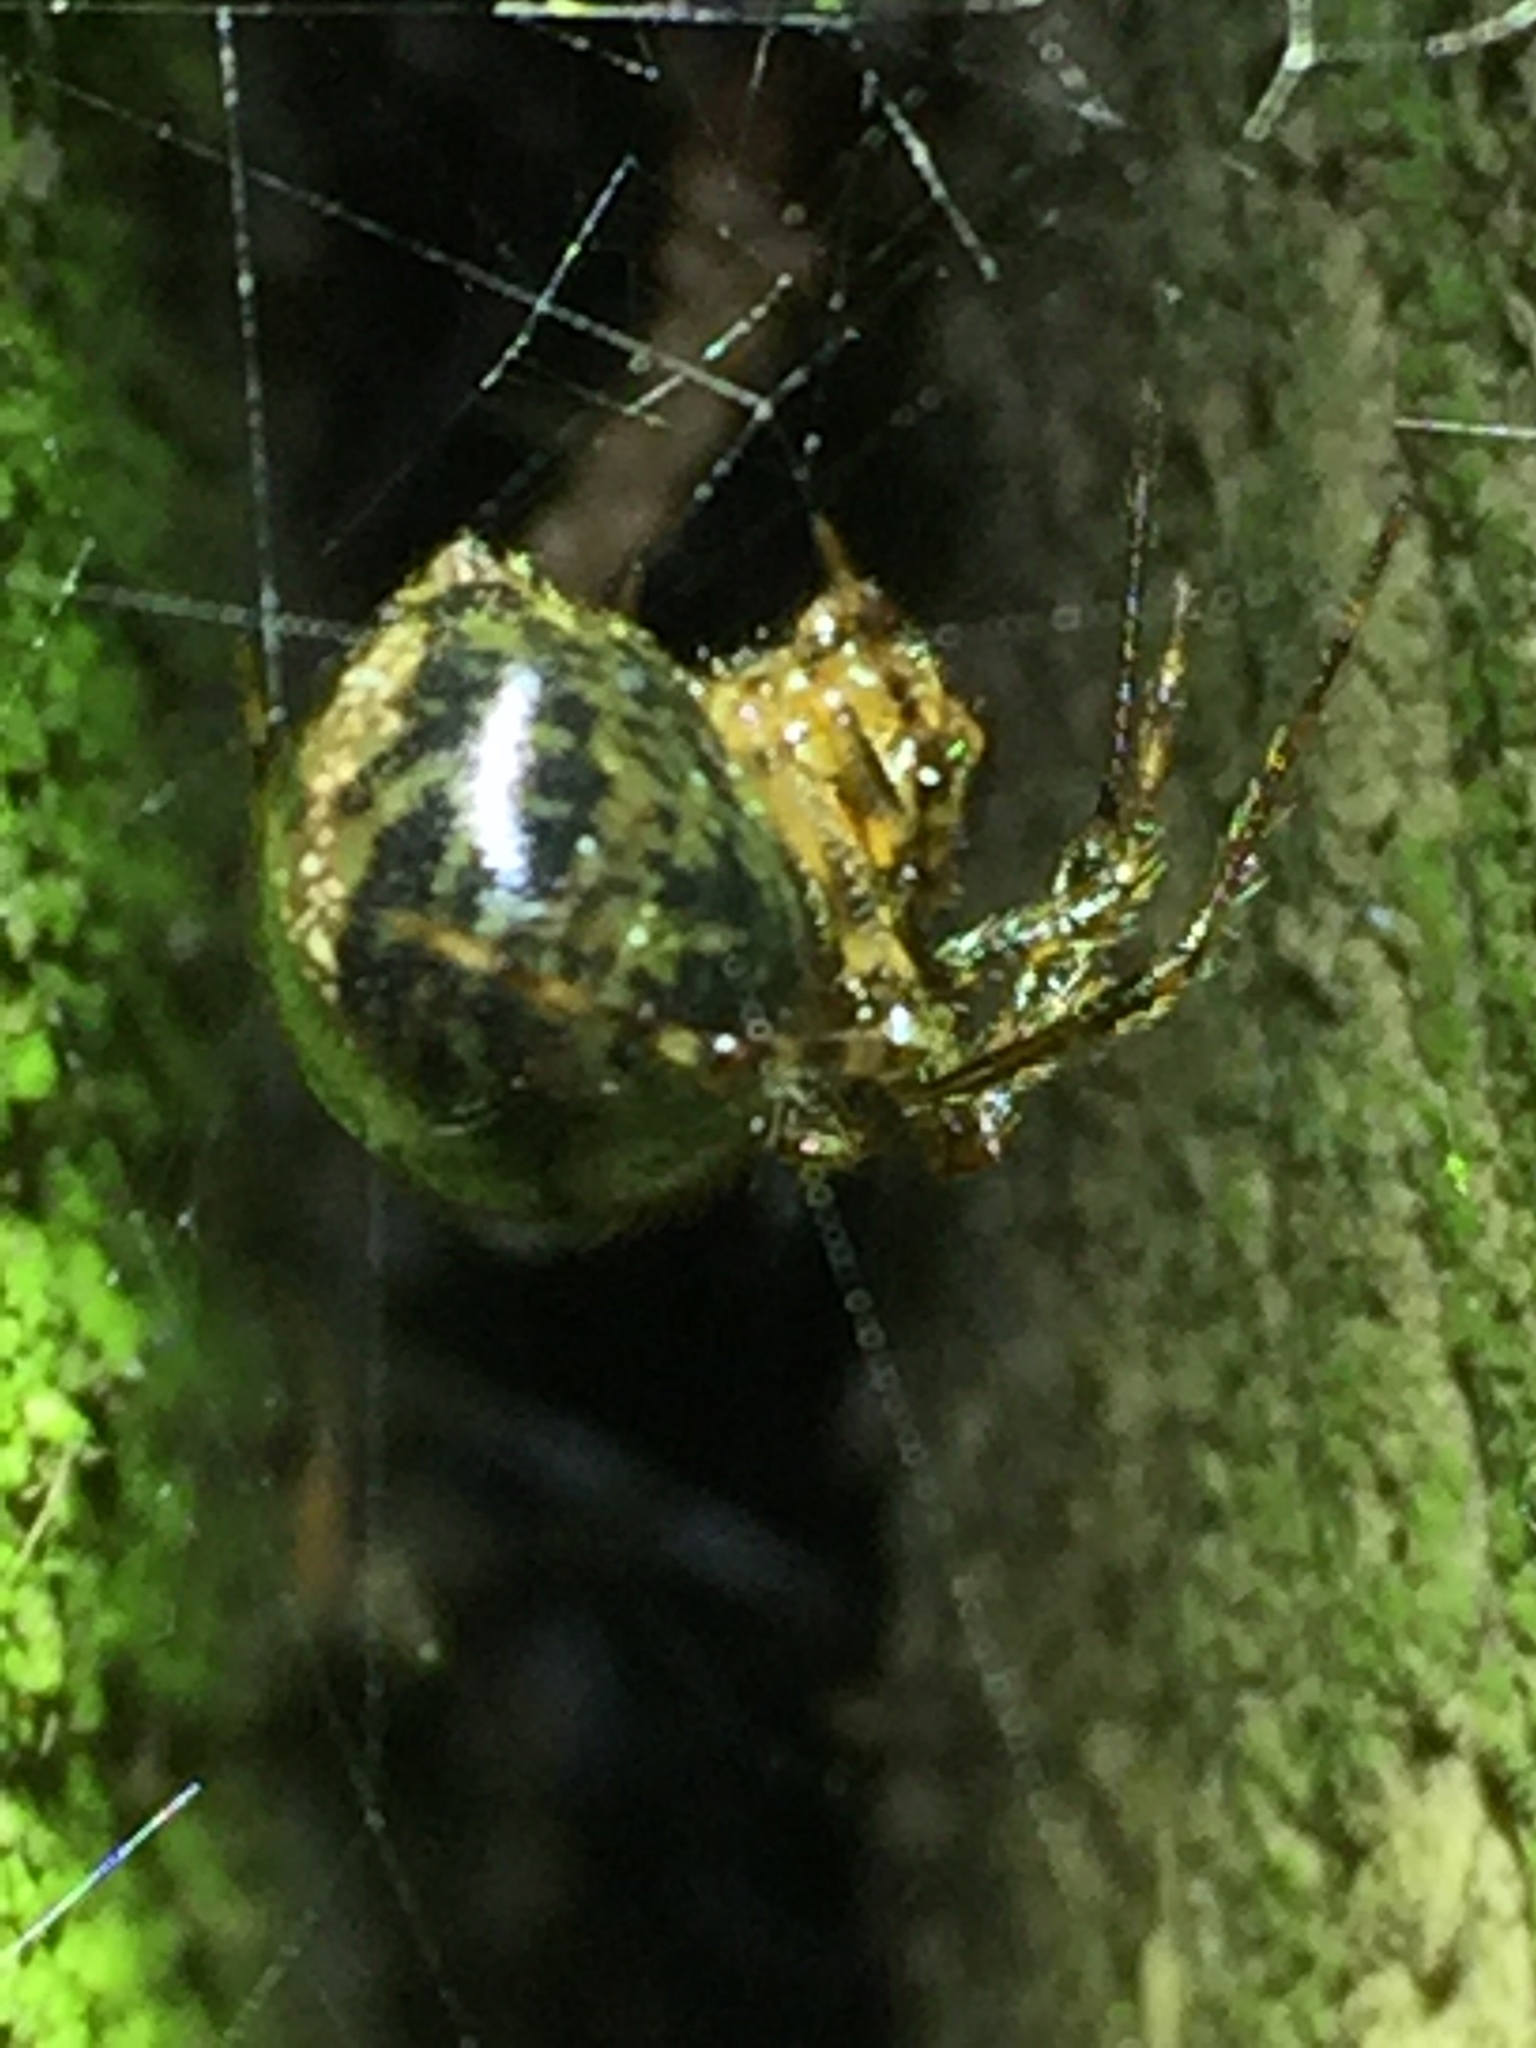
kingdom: Animalia
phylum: Arthropoda
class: Arachnida
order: Araneae
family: Theridiidae
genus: Cryptachaea
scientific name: Cryptachaea veruculata
